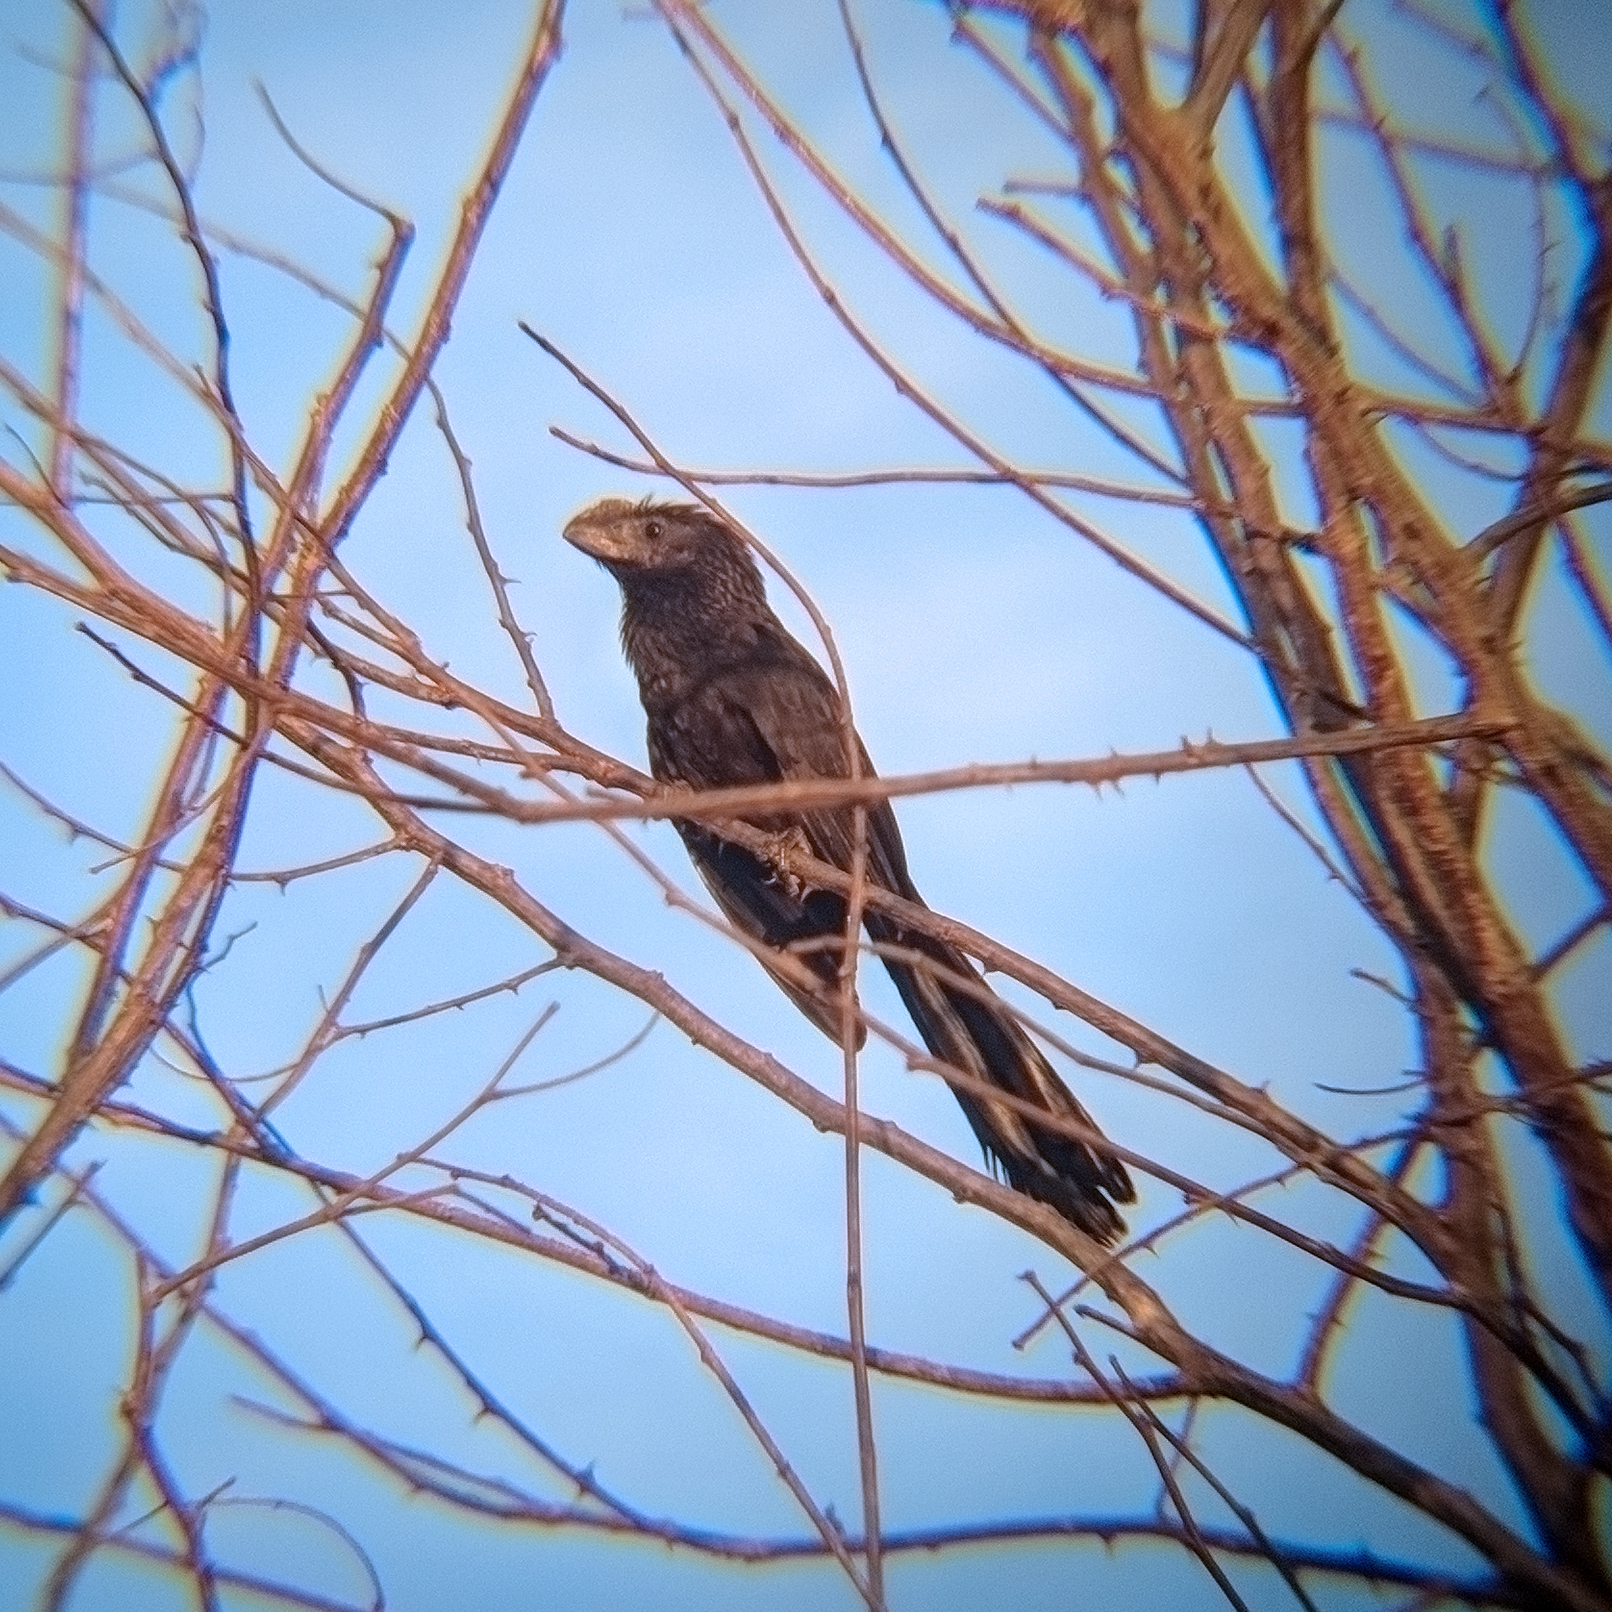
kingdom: Animalia
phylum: Chordata
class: Aves
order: Cuculiformes
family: Cuculidae
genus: Crotophaga
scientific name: Crotophaga ani
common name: Smooth-billed ani
